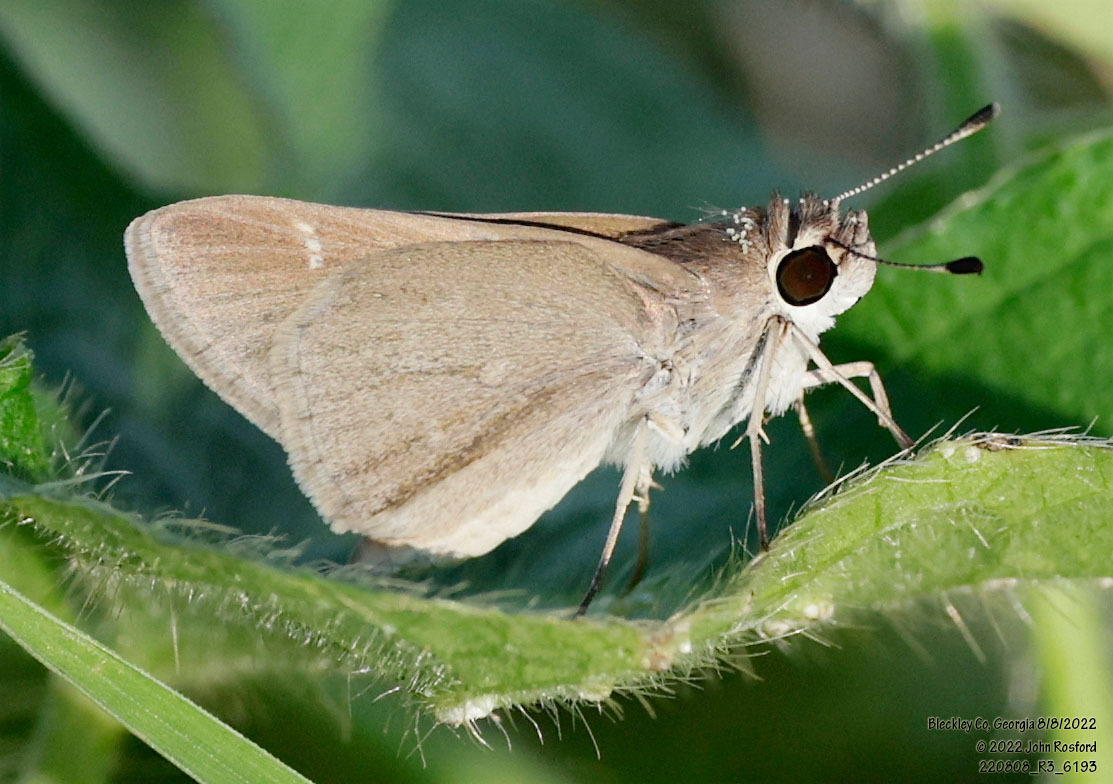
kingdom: Animalia
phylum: Arthropoda
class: Insecta
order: Lepidoptera
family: Hesperiidae
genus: Lerodea
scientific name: Lerodea eufala
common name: Eufala skipper
